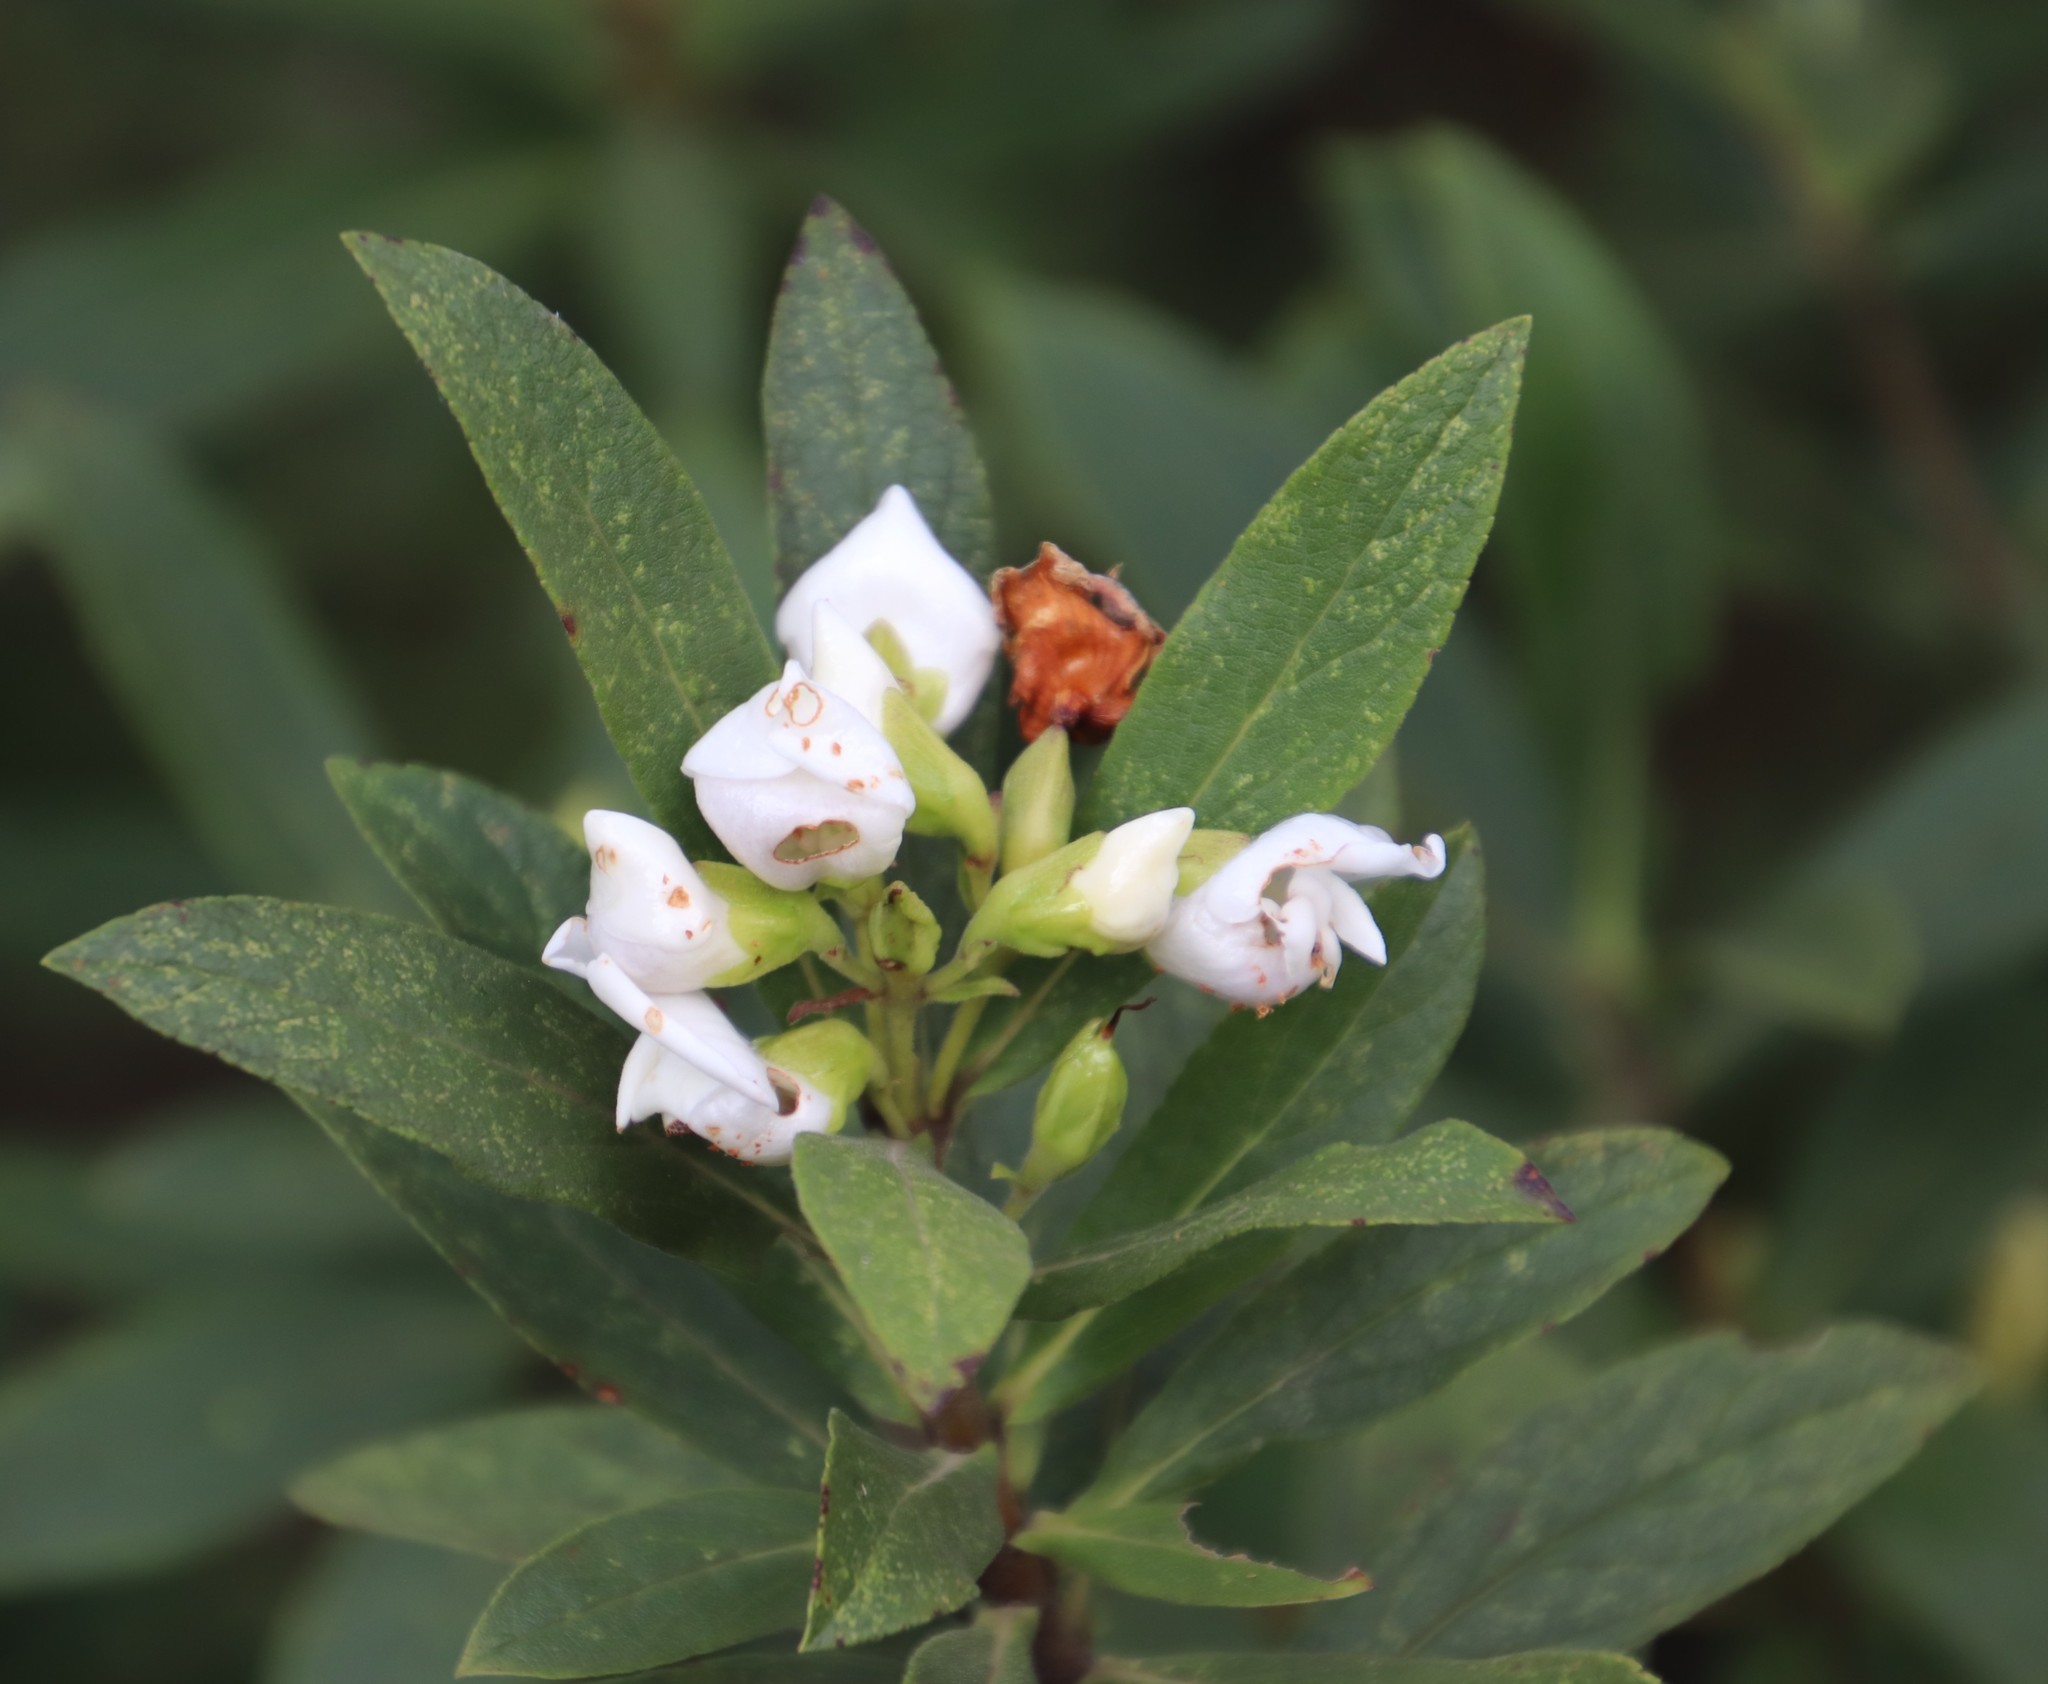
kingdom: Plantae
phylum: Tracheophyta
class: Magnoliopsida
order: Lamiales
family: Stilbaceae
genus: Bowkeria
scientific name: Bowkeria verticillata
